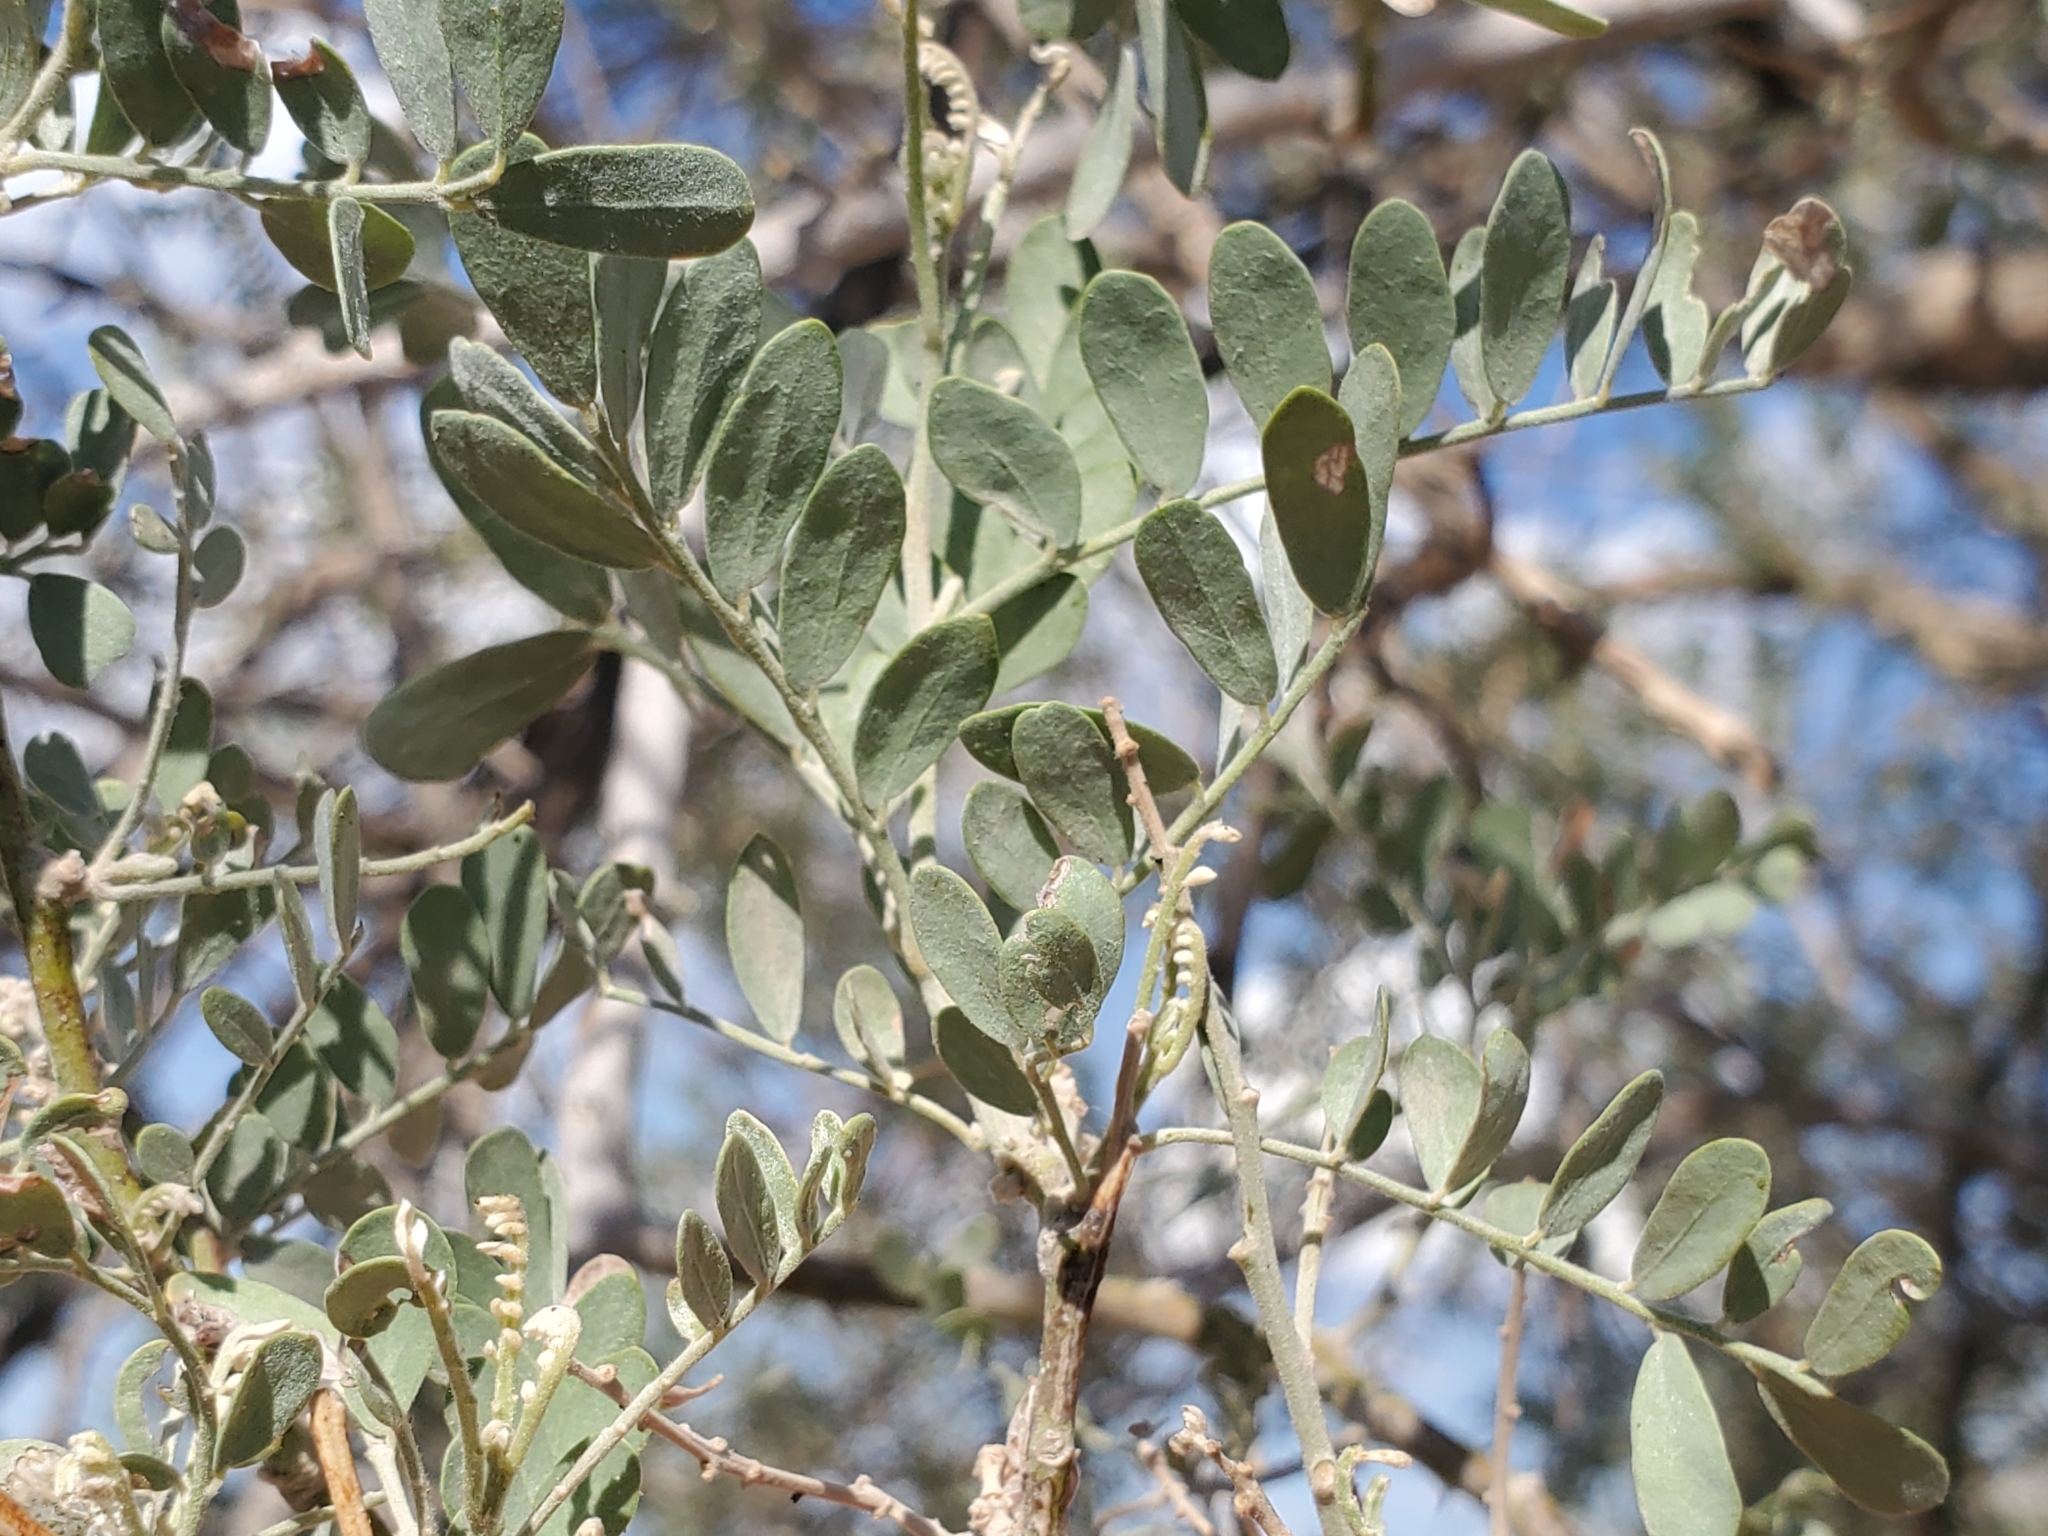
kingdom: Plantae
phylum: Tracheophyta
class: Magnoliopsida
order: Fabales
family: Fabaceae
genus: Olneya
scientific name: Olneya tesota
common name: Desert ironwood
